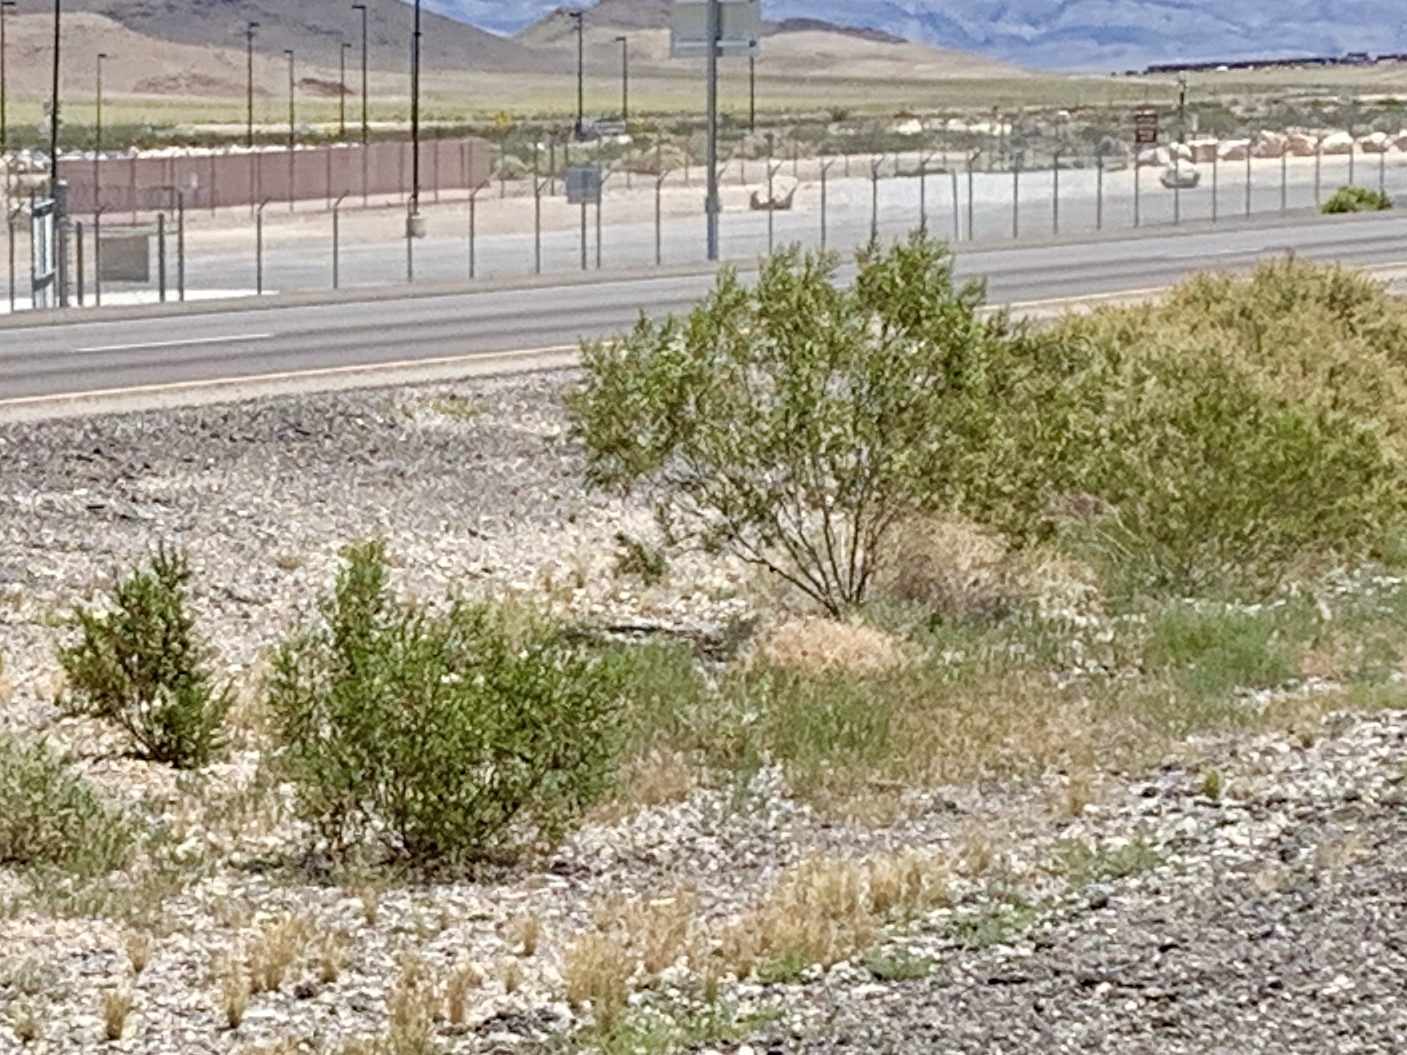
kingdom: Plantae
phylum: Tracheophyta
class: Magnoliopsida
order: Zygophyllales
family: Zygophyllaceae
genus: Larrea
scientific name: Larrea tridentata
